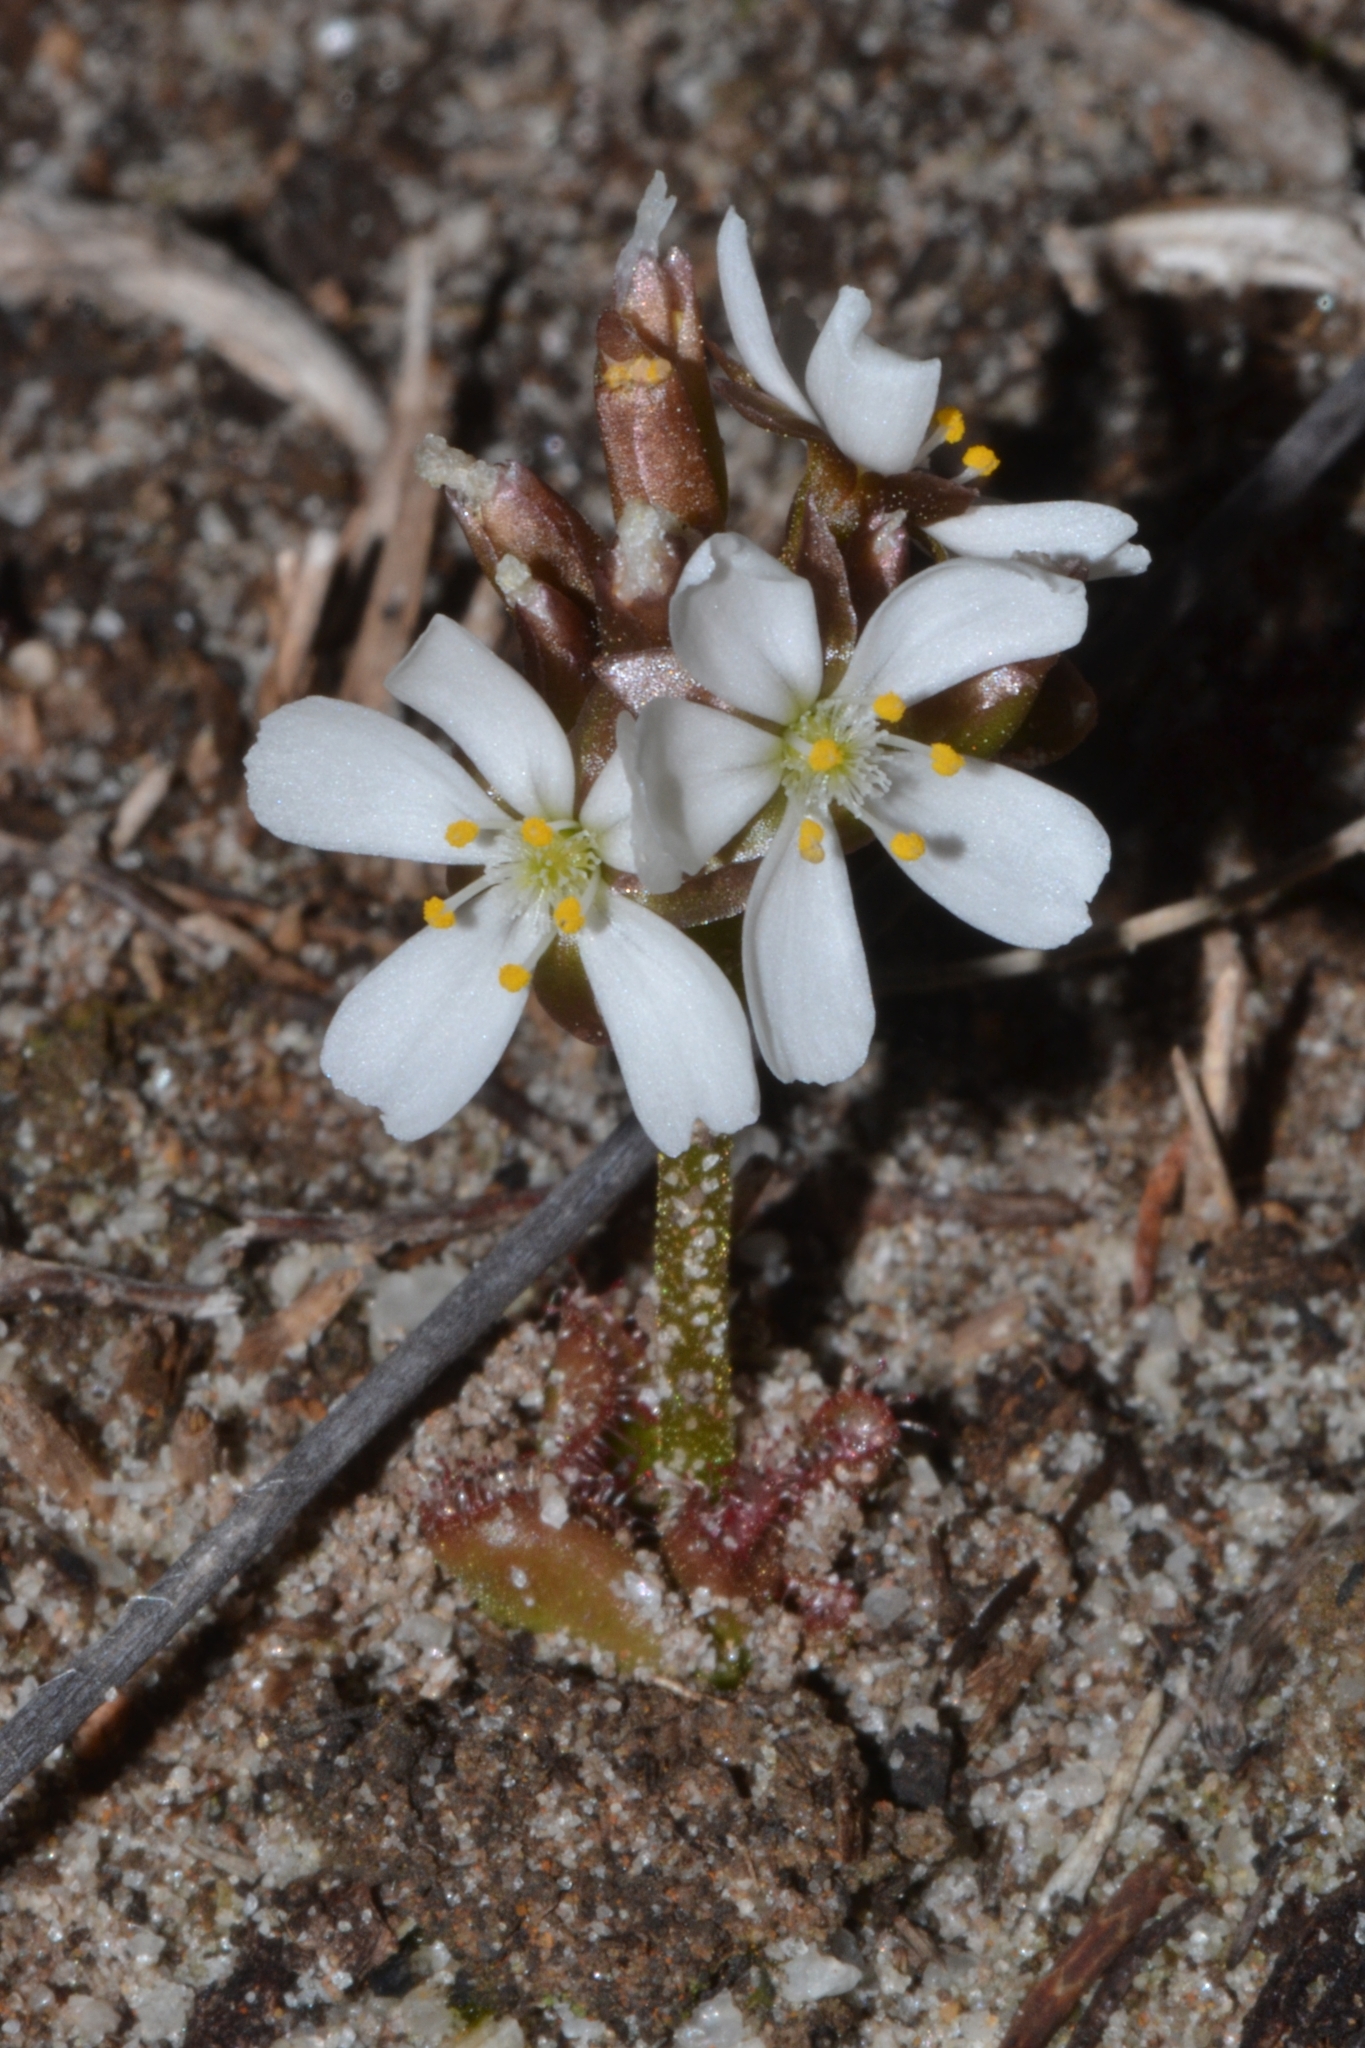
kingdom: Plantae
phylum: Tracheophyta
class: Magnoliopsida
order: Caryophyllales
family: Droseraceae
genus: Drosera
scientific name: Drosera erythrorhiza
